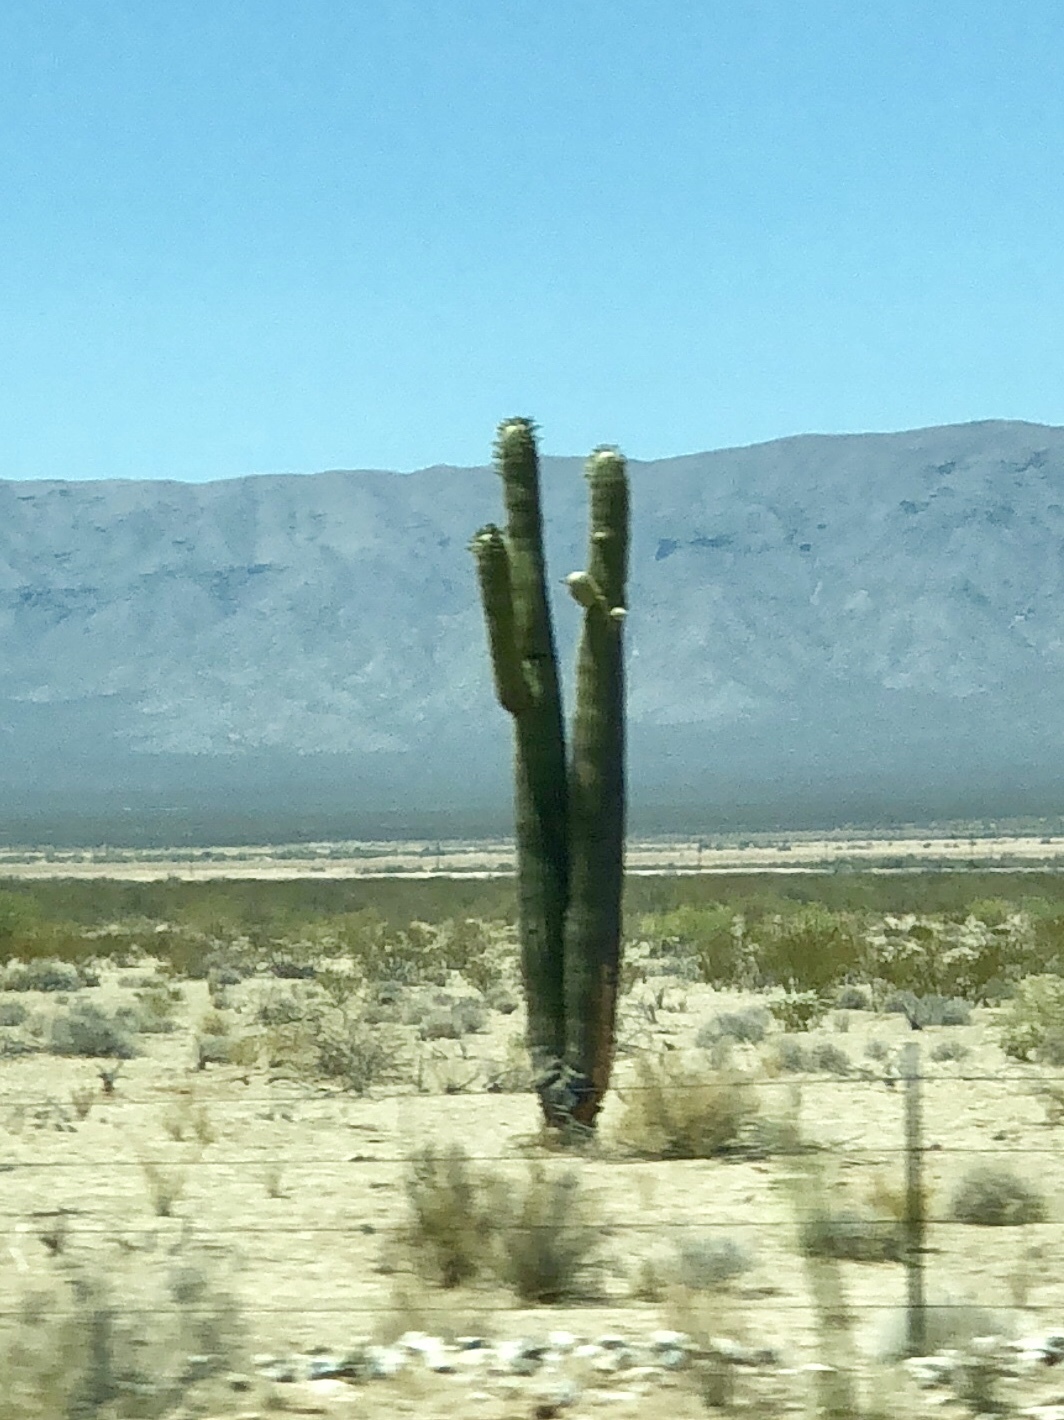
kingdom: Plantae
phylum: Tracheophyta
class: Magnoliopsida
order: Caryophyllales
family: Cactaceae
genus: Carnegiea
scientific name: Carnegiea gigantea
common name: Saguaro
